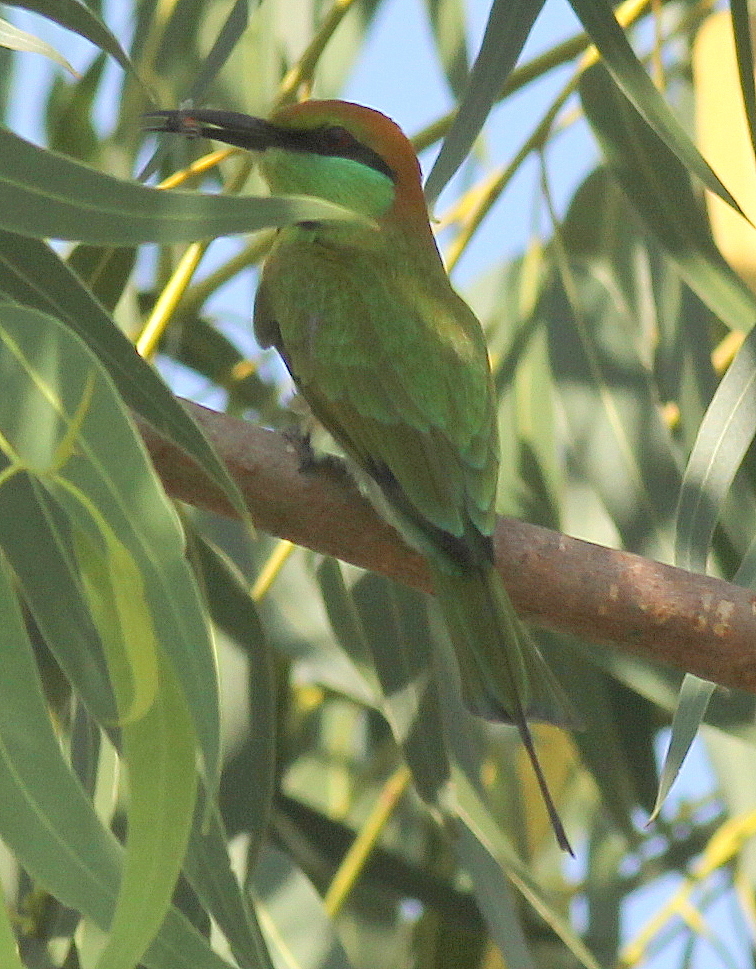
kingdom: Animalia
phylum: Chordata
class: Aves
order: Coraciiformes
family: Meropidae
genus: Merops
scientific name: Merops orientalis
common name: Green bee-eater
